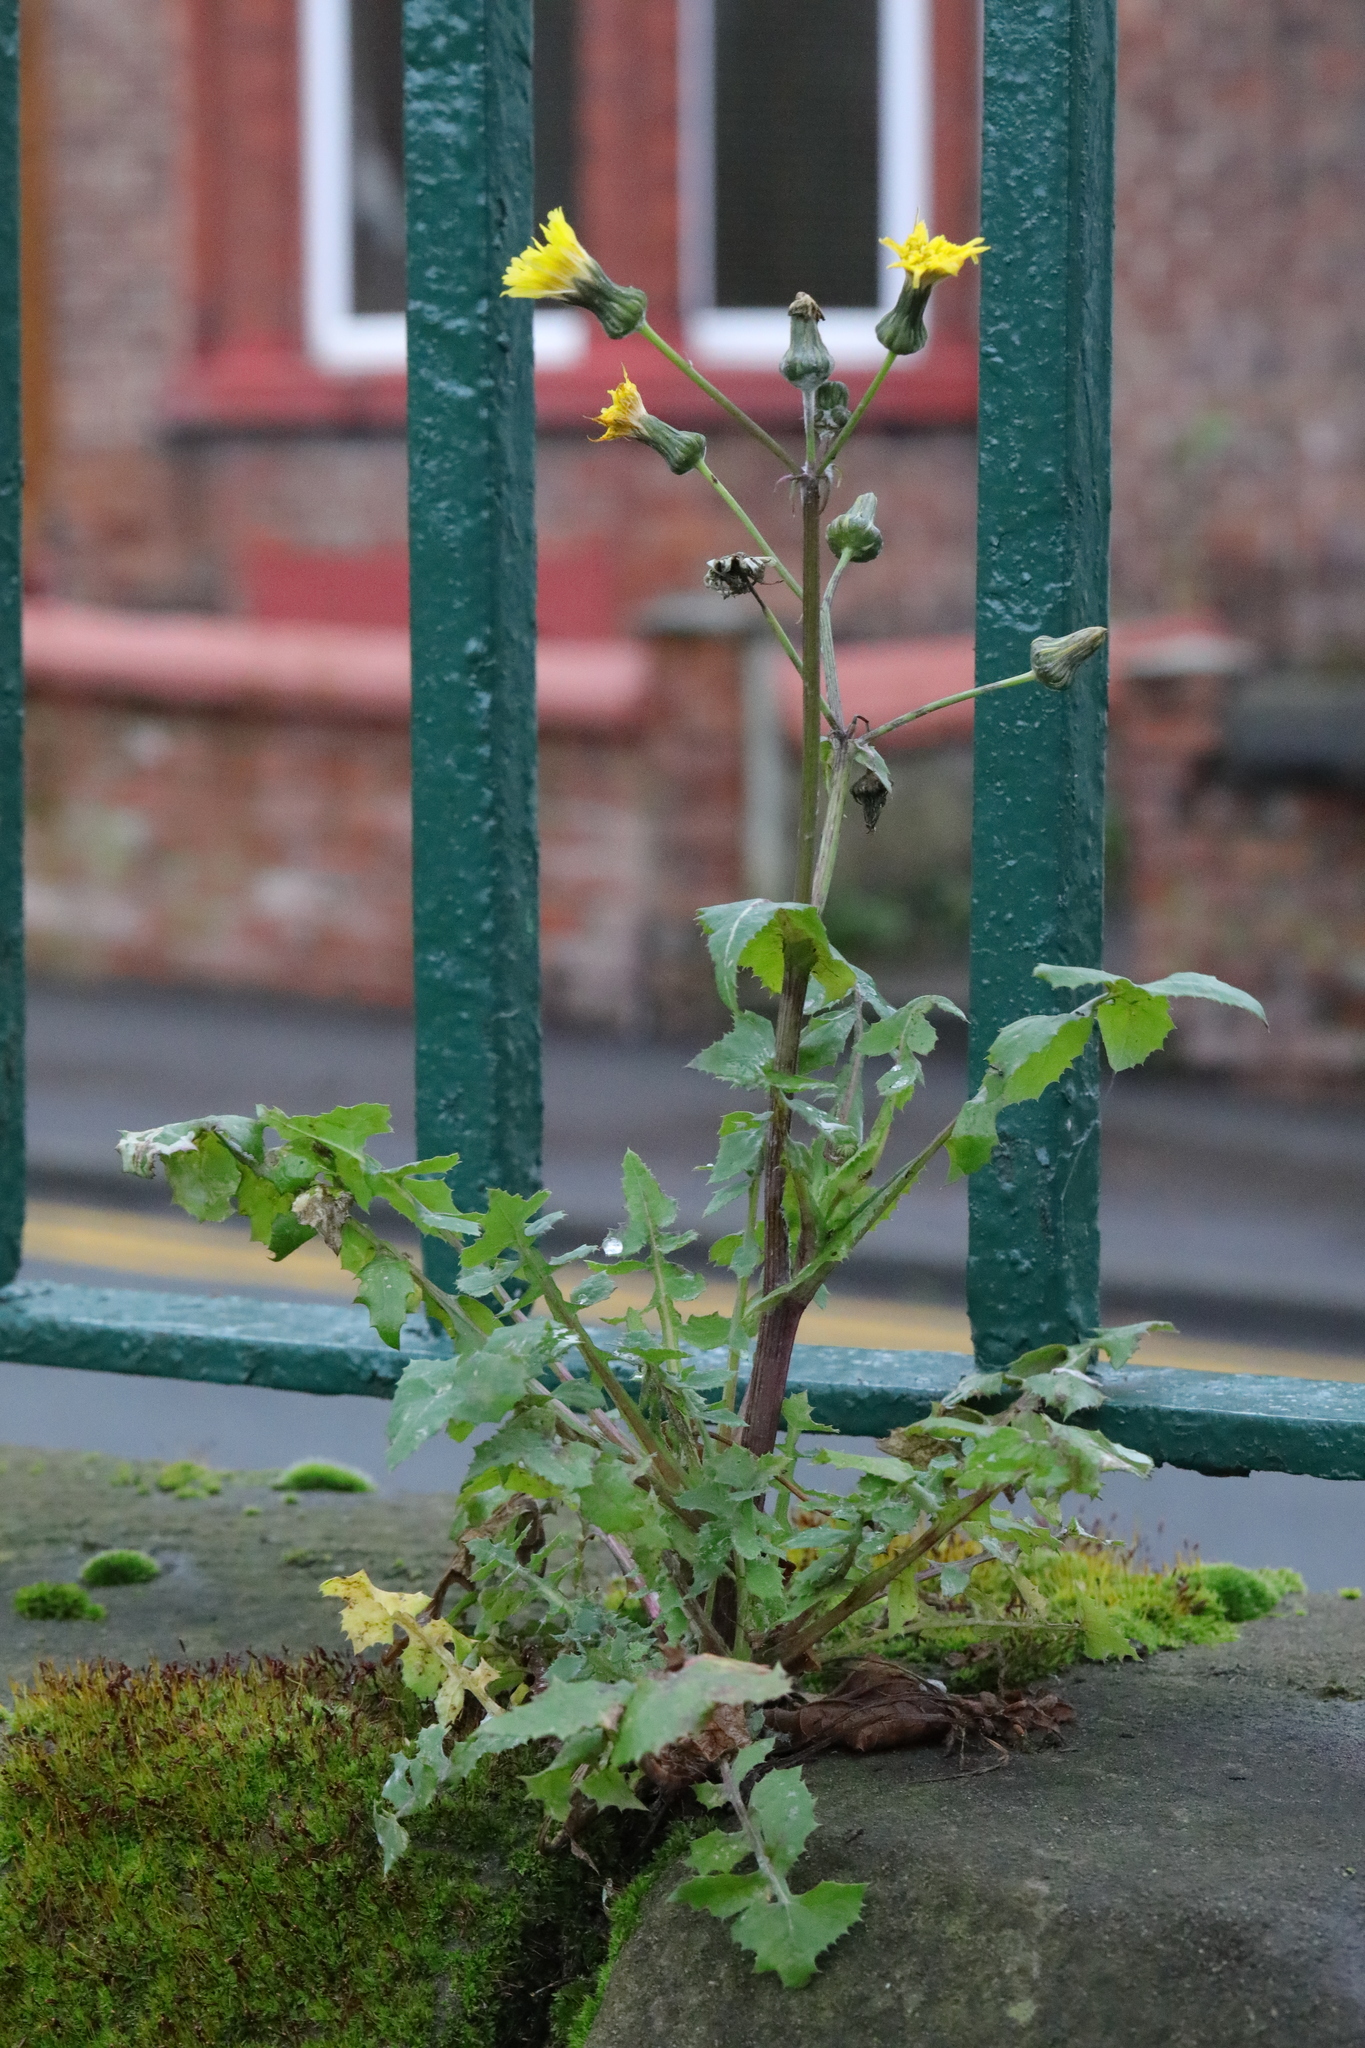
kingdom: Plantae
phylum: Tracheophyta
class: Magnoliopsida
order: Asterales
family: Asteraceae
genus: Sonchus
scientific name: Sonchus oleraceus
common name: Common sowthistle
